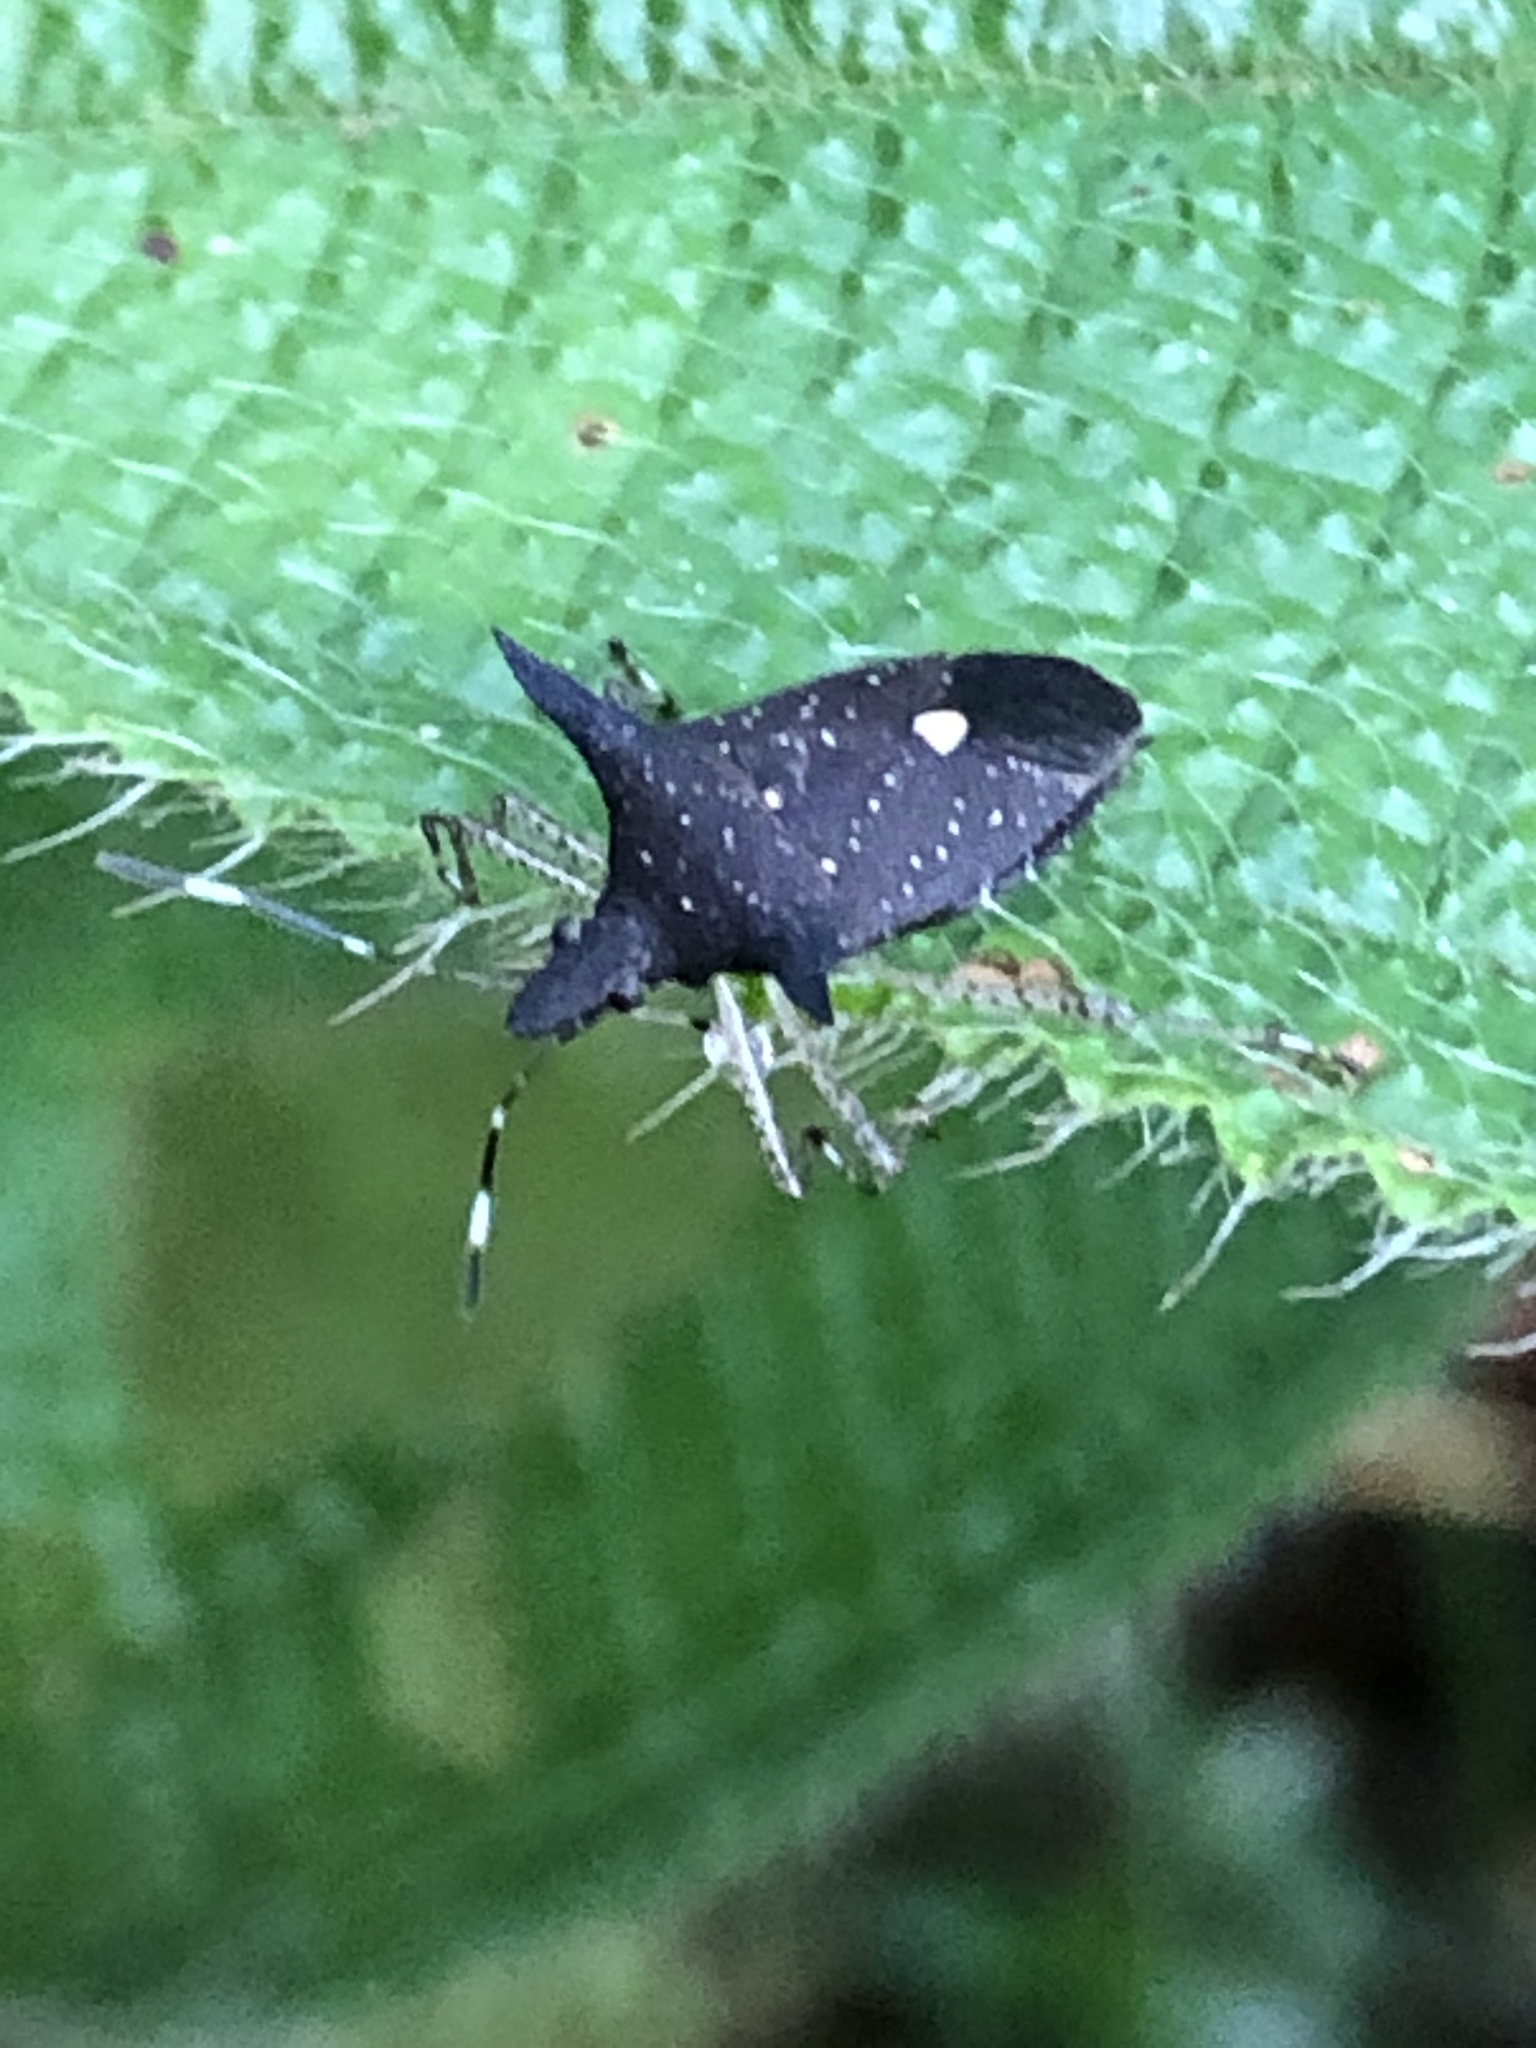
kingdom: Animalia
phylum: Arthropoda
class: Insecta
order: Hemiptera
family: Pentatomidae
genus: Proxys
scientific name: Proxys albopunctulatus
